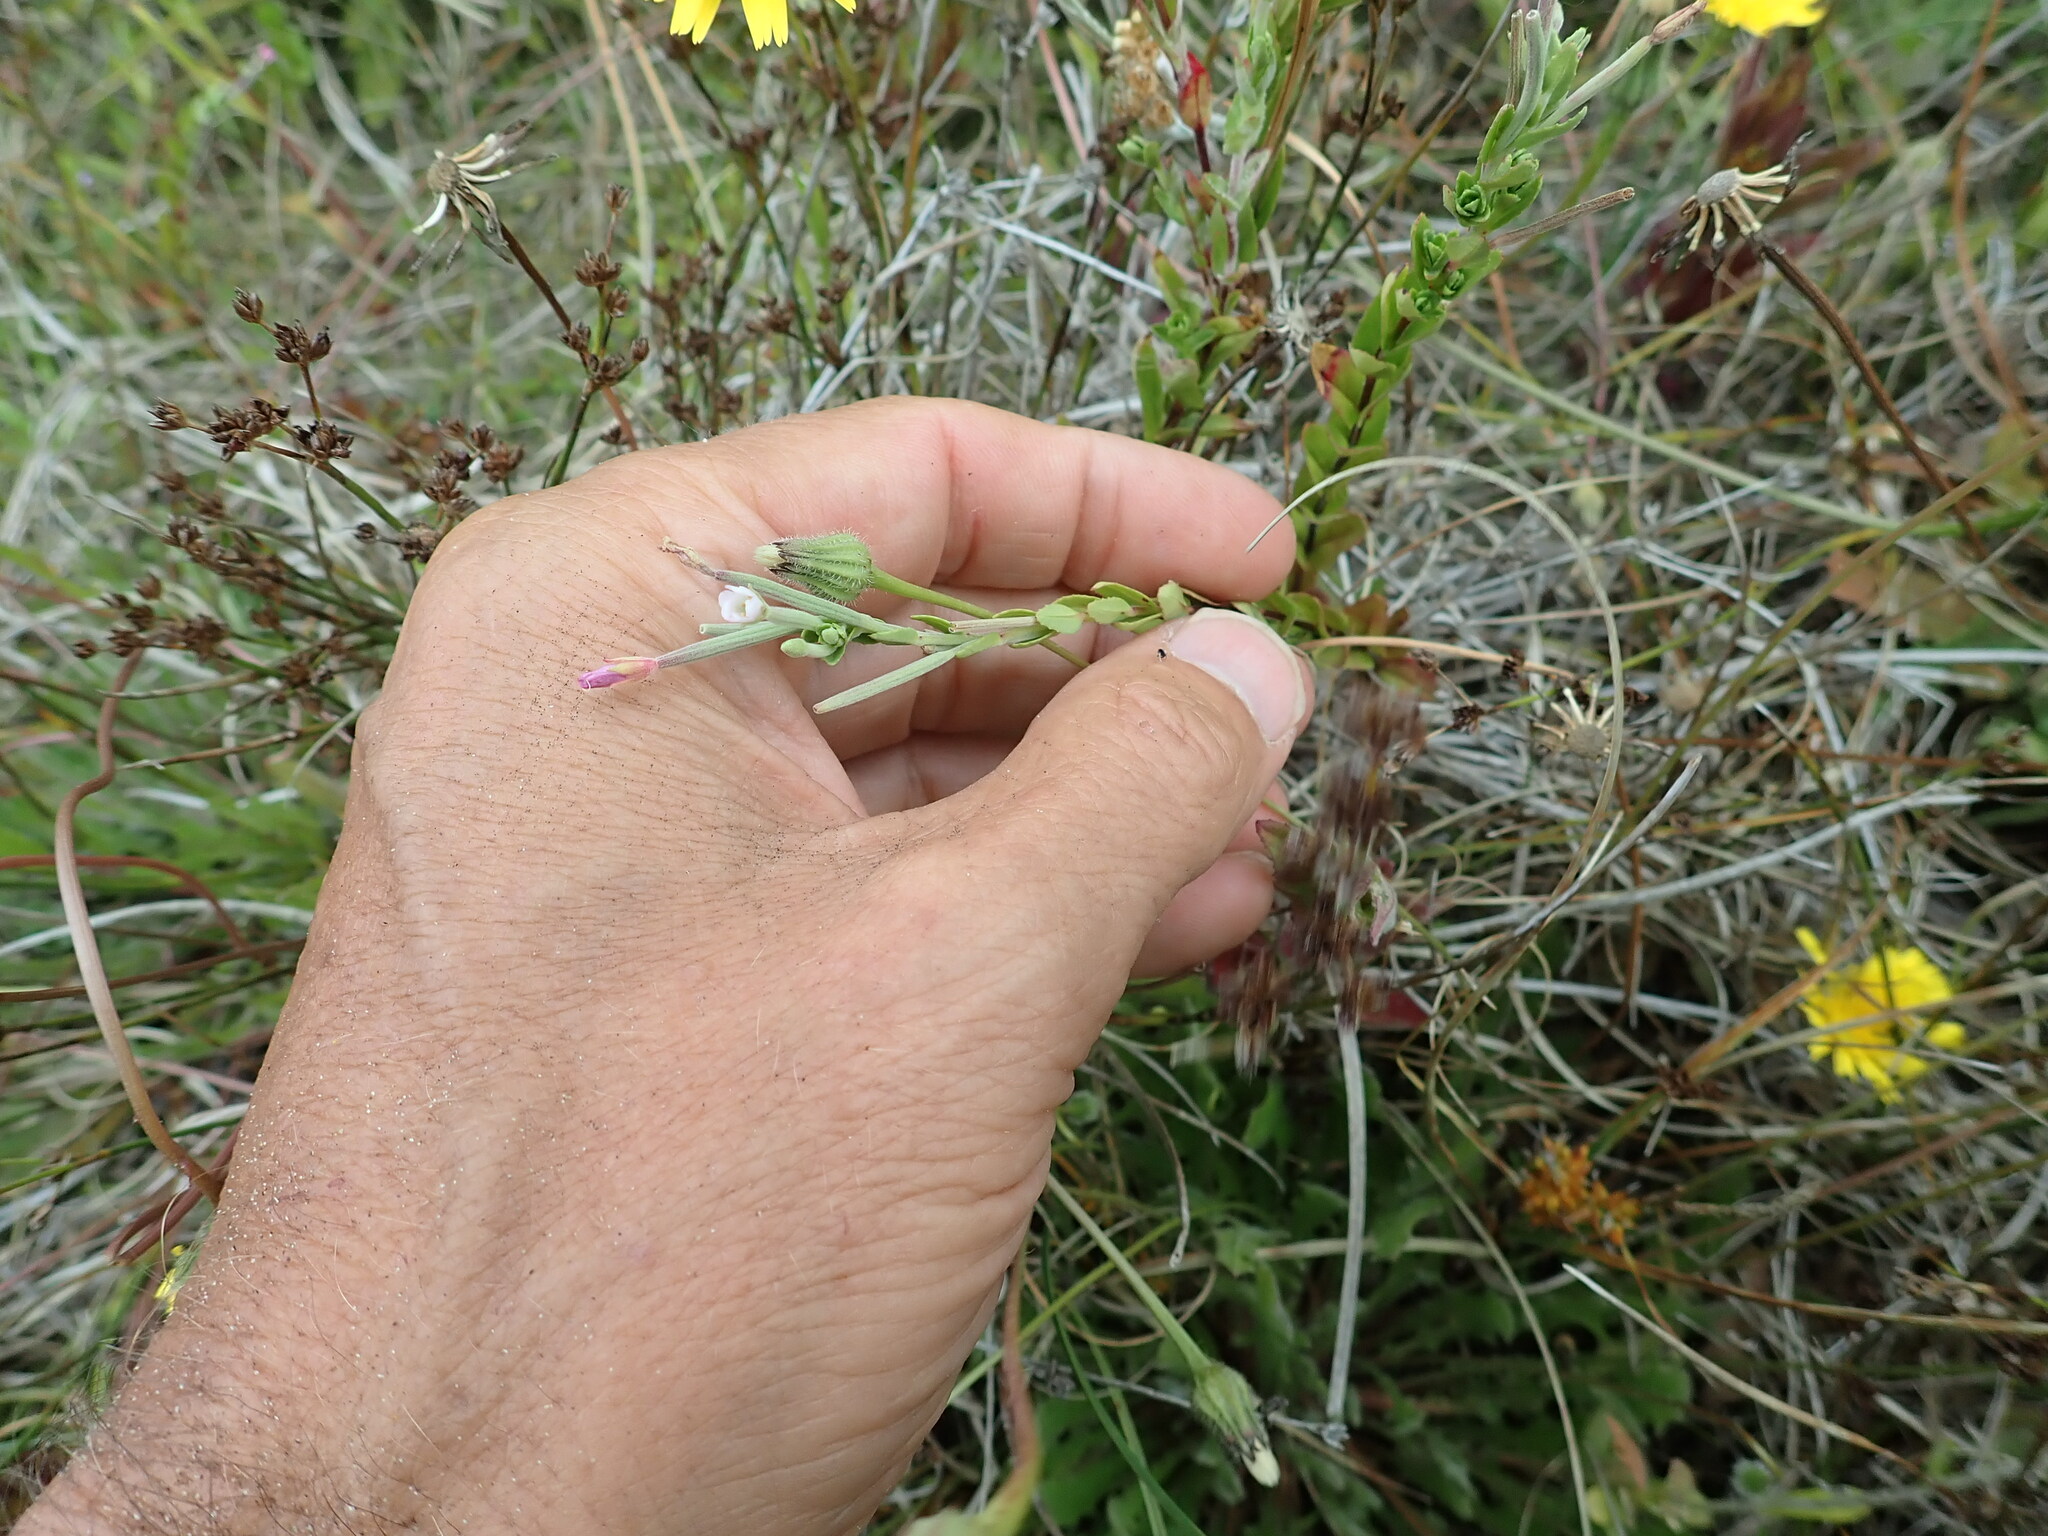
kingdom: Plantae
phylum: Tracheophyta
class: Magnoliopsida
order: Myrtales
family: Onagraceae
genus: Epilobium
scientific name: Epilobium billardiereanum
